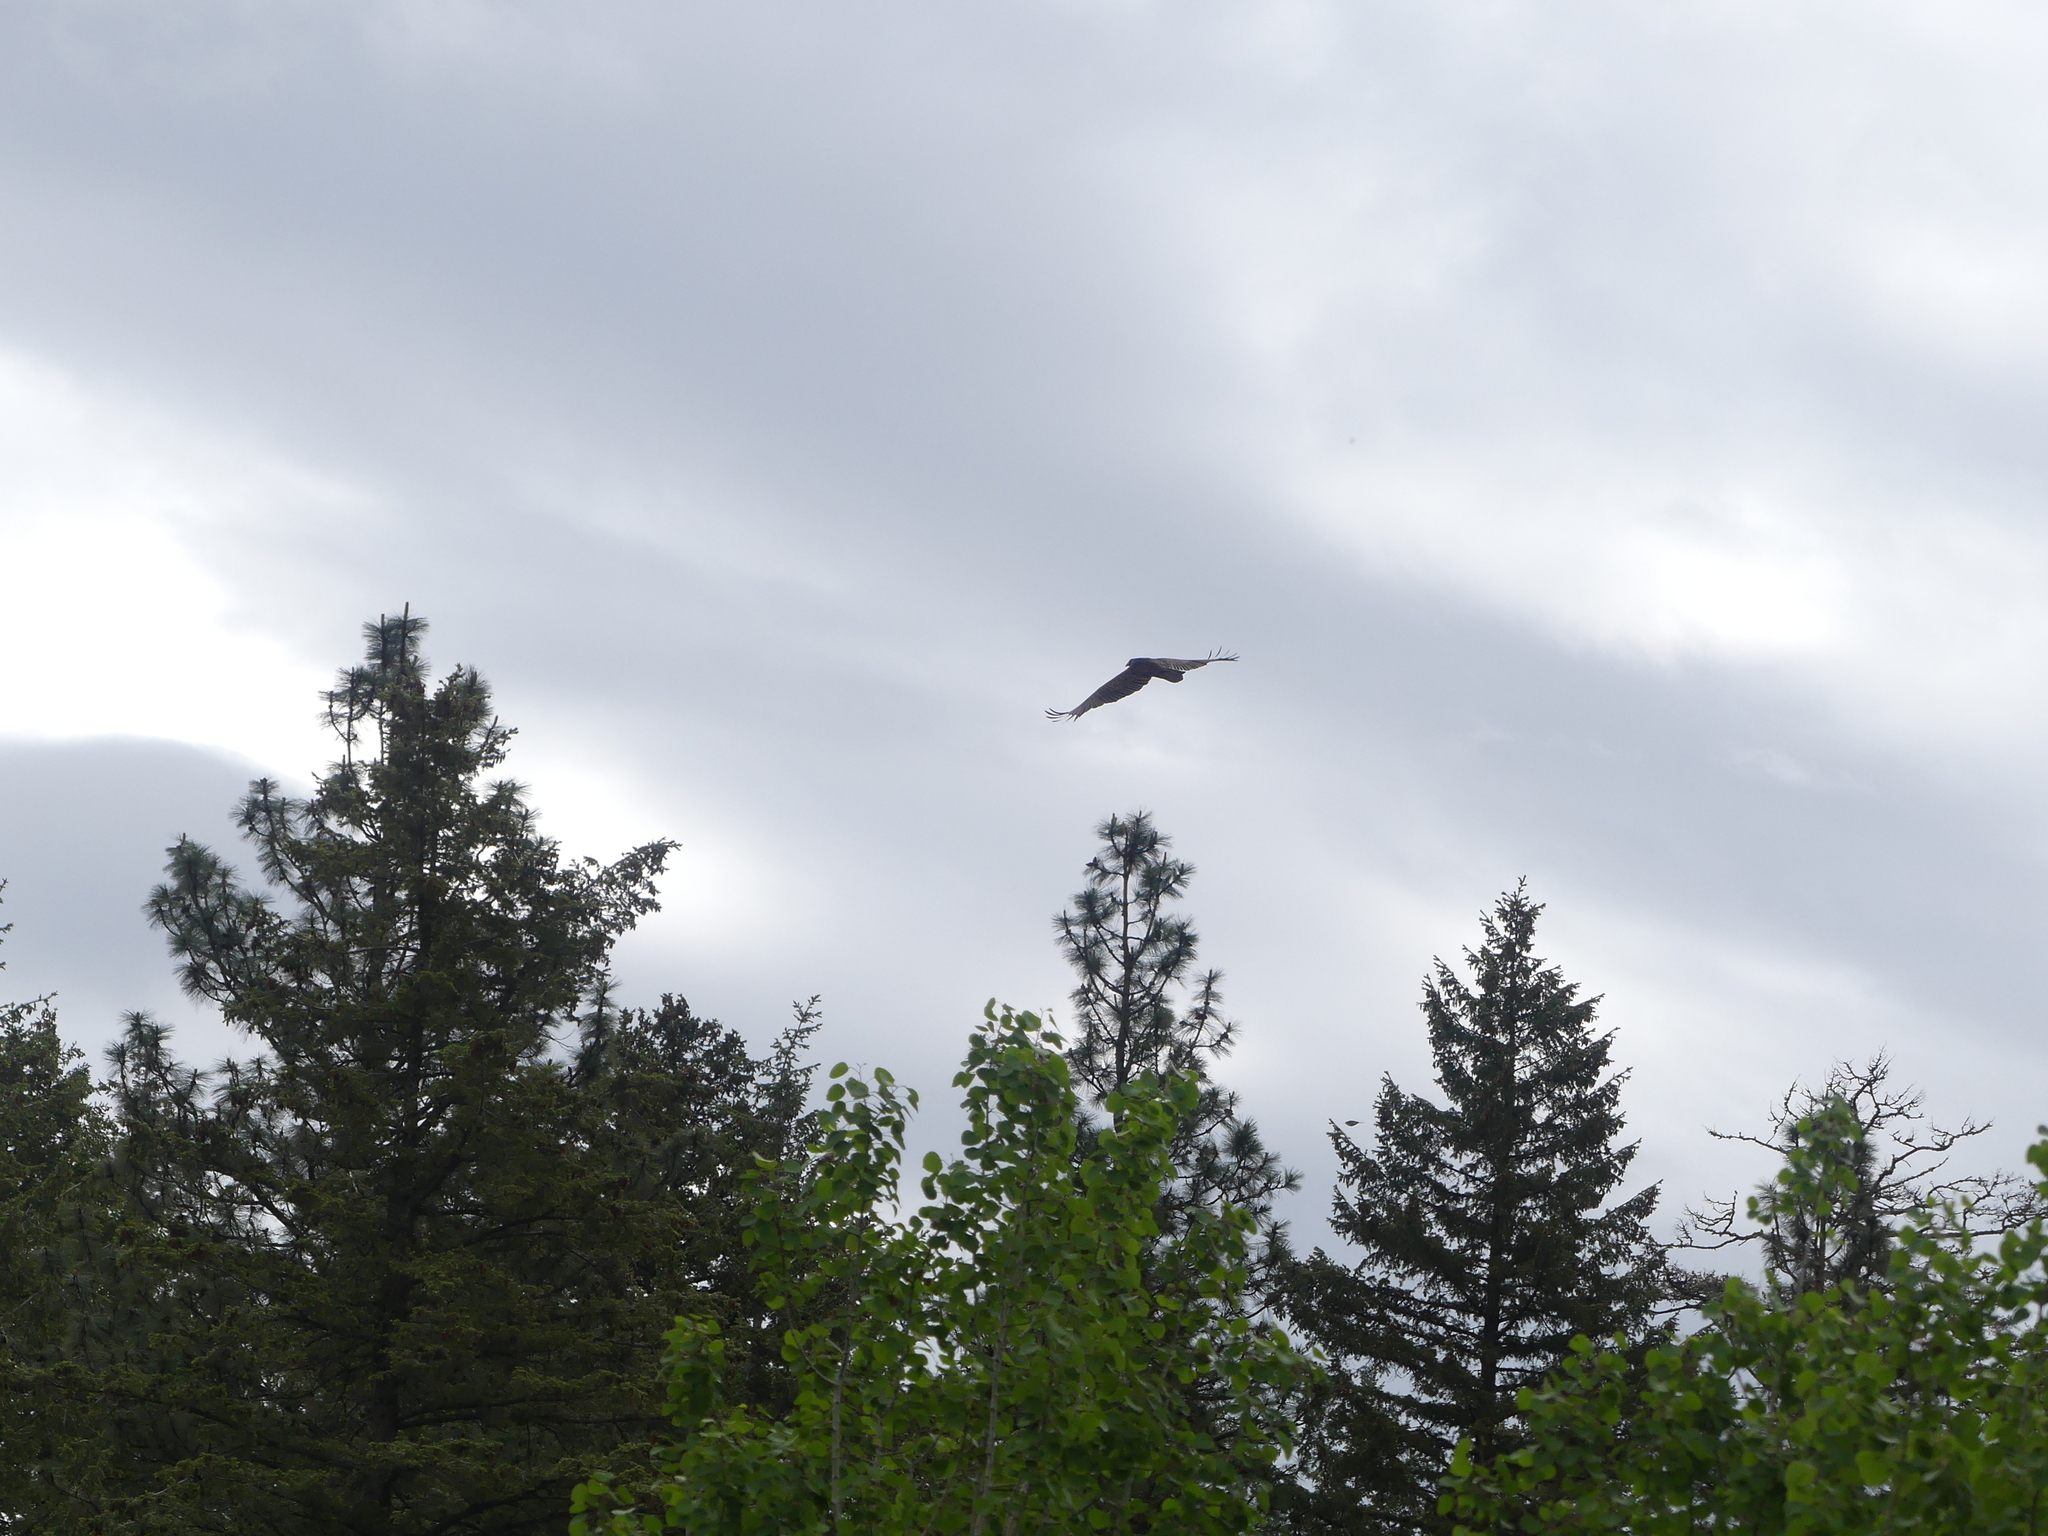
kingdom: Animalia
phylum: Chordata
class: Aves
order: Accipitriformes
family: Cathartidae
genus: Cathartes
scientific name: Cathartes aura
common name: Turkey vulture
